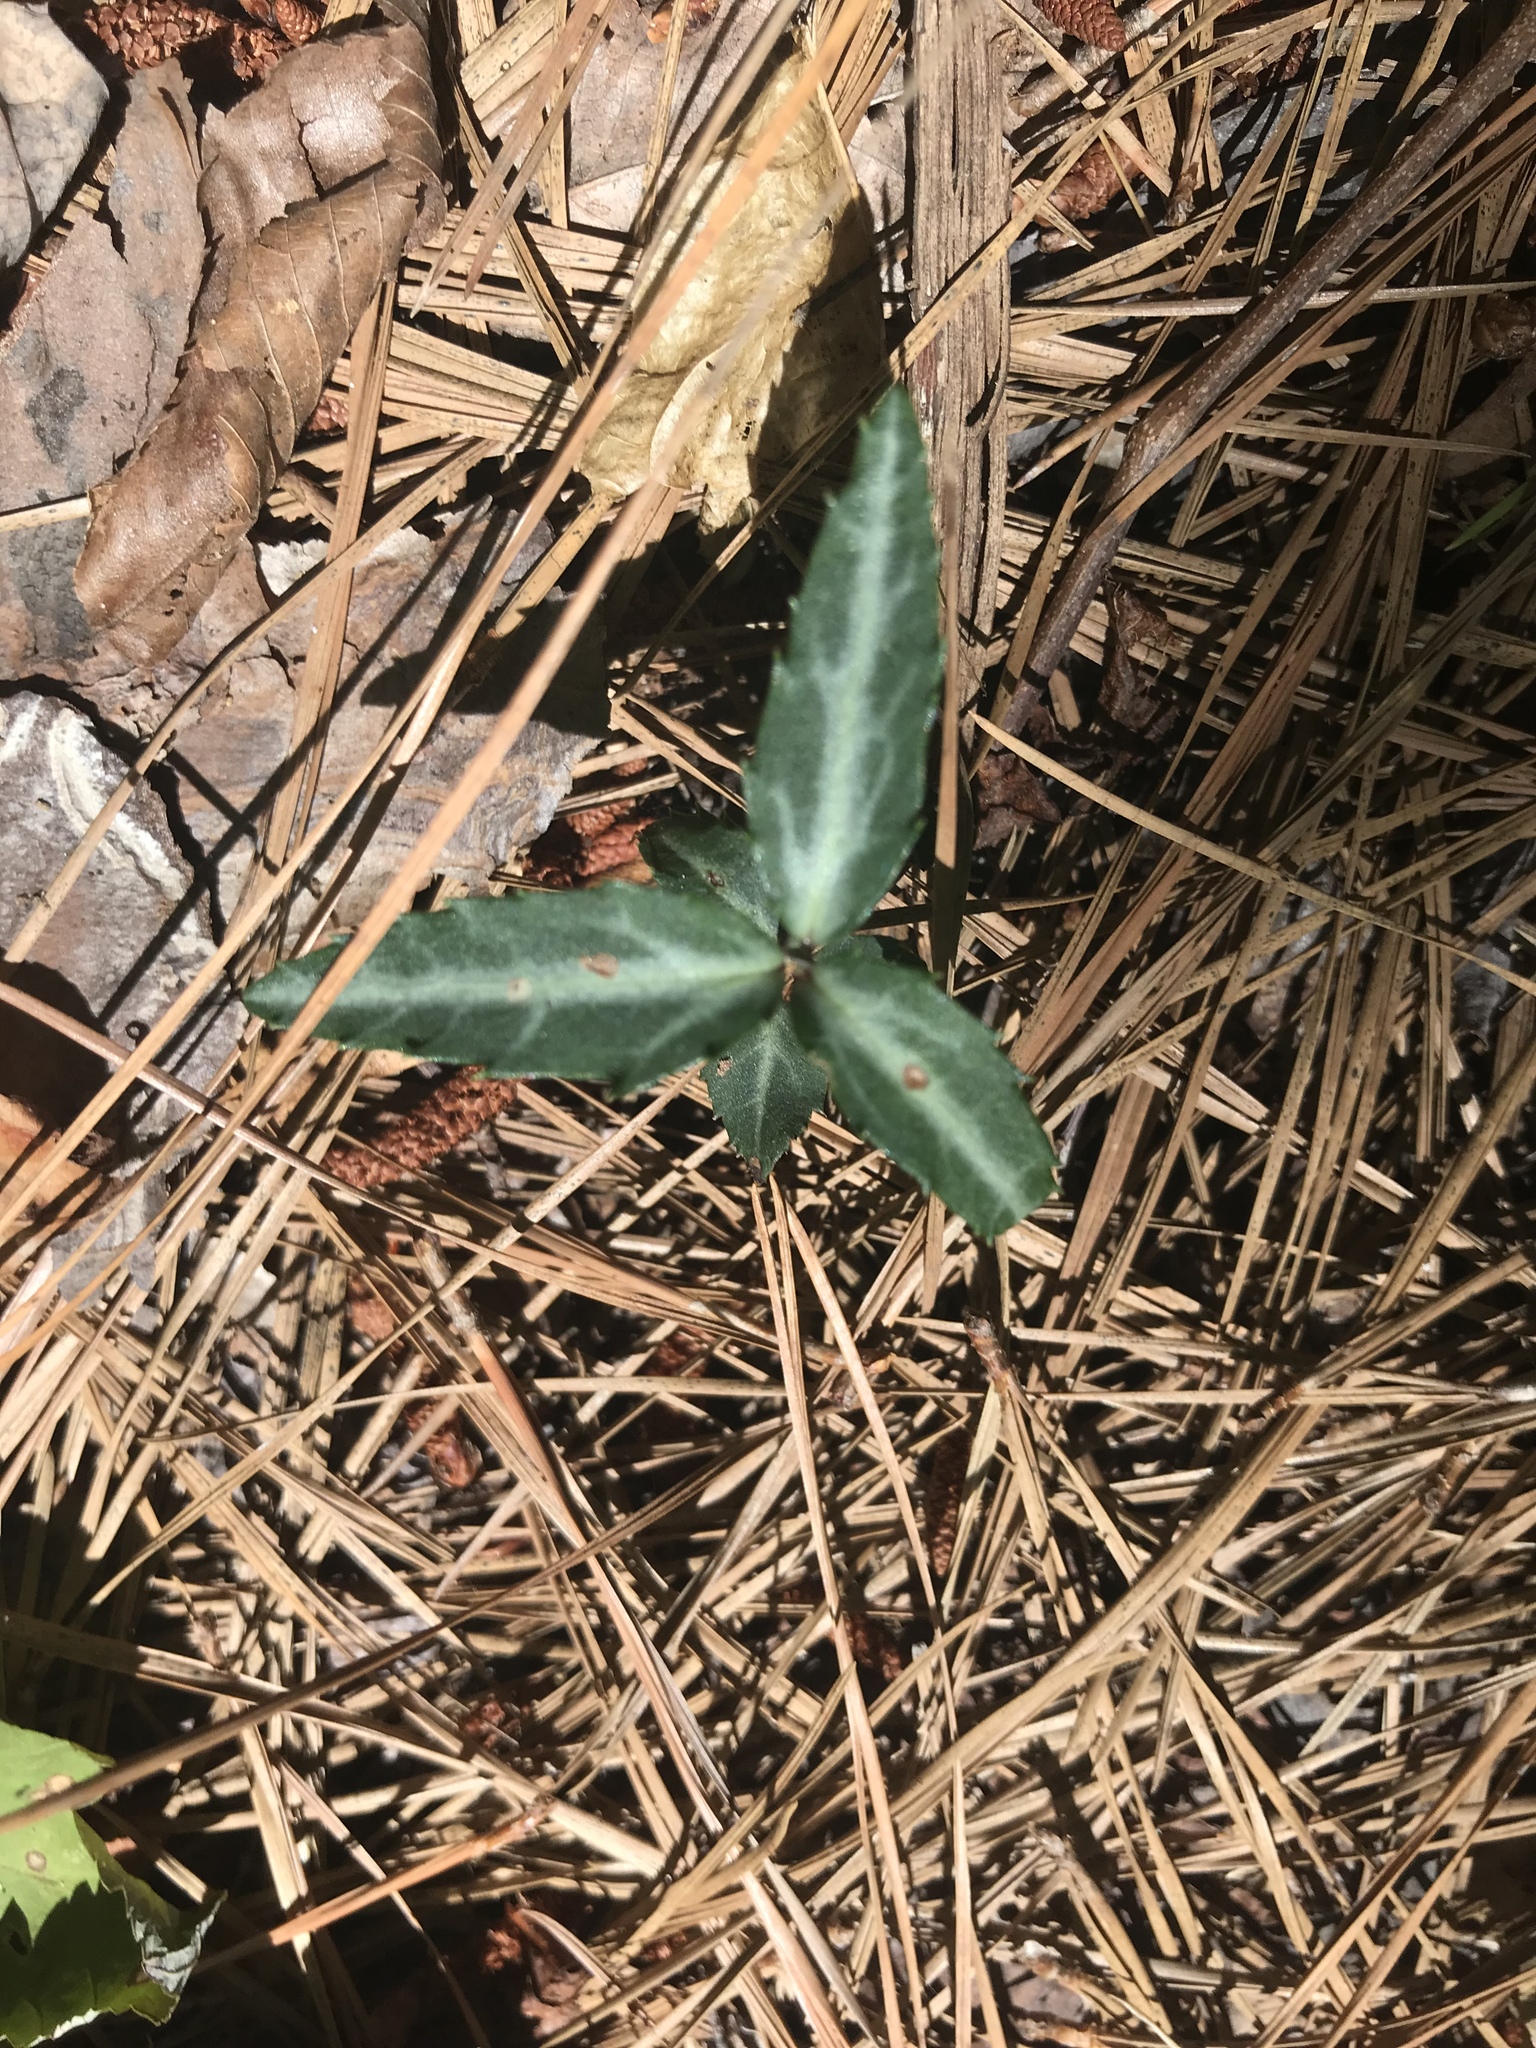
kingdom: Plantae
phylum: Tracheophyta
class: Magnoliopsida
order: Ericales
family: Ericaceae
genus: Chimaphila
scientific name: Chimaphila maculata
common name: Spotted pipsissewa
